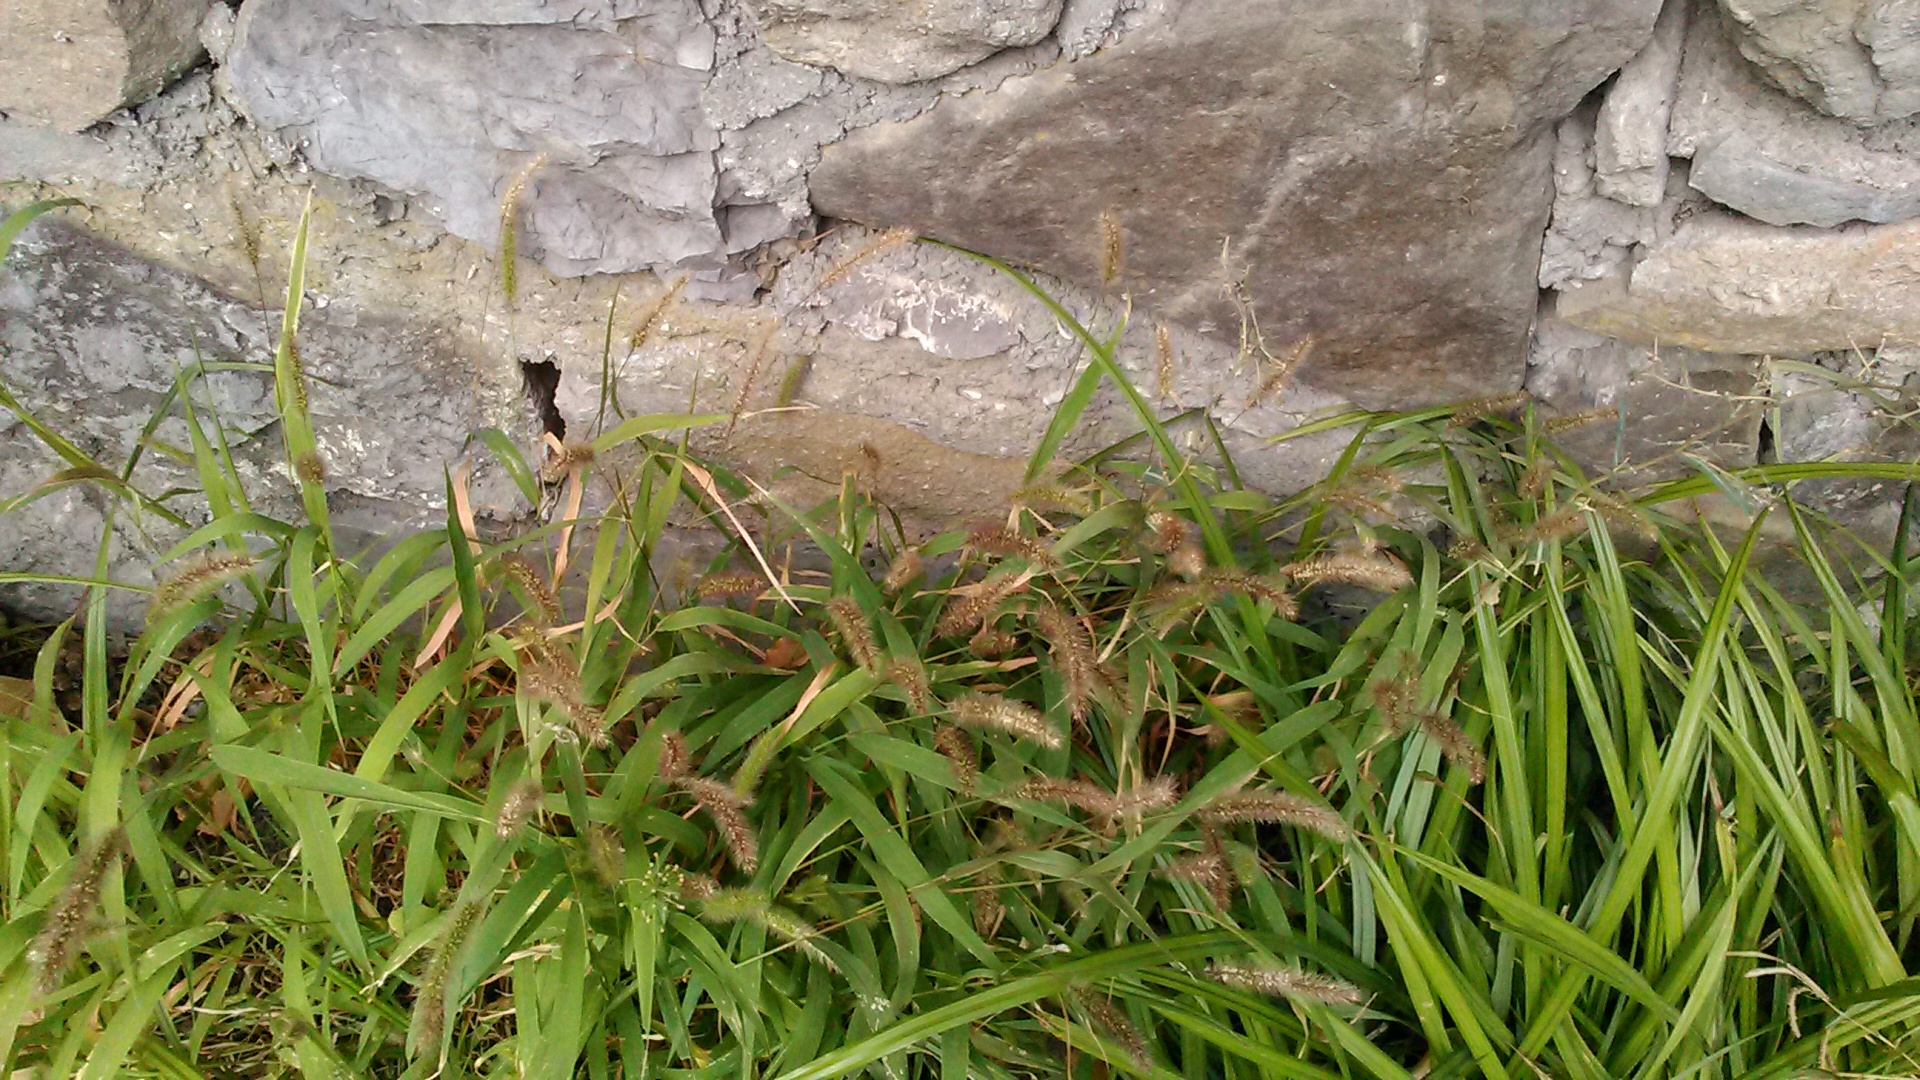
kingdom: Plantae
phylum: Tracheophyta
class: Liliopsida
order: Poales
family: Poaceae
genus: Setaria
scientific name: Setaria viridis
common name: Green bristlegrass
